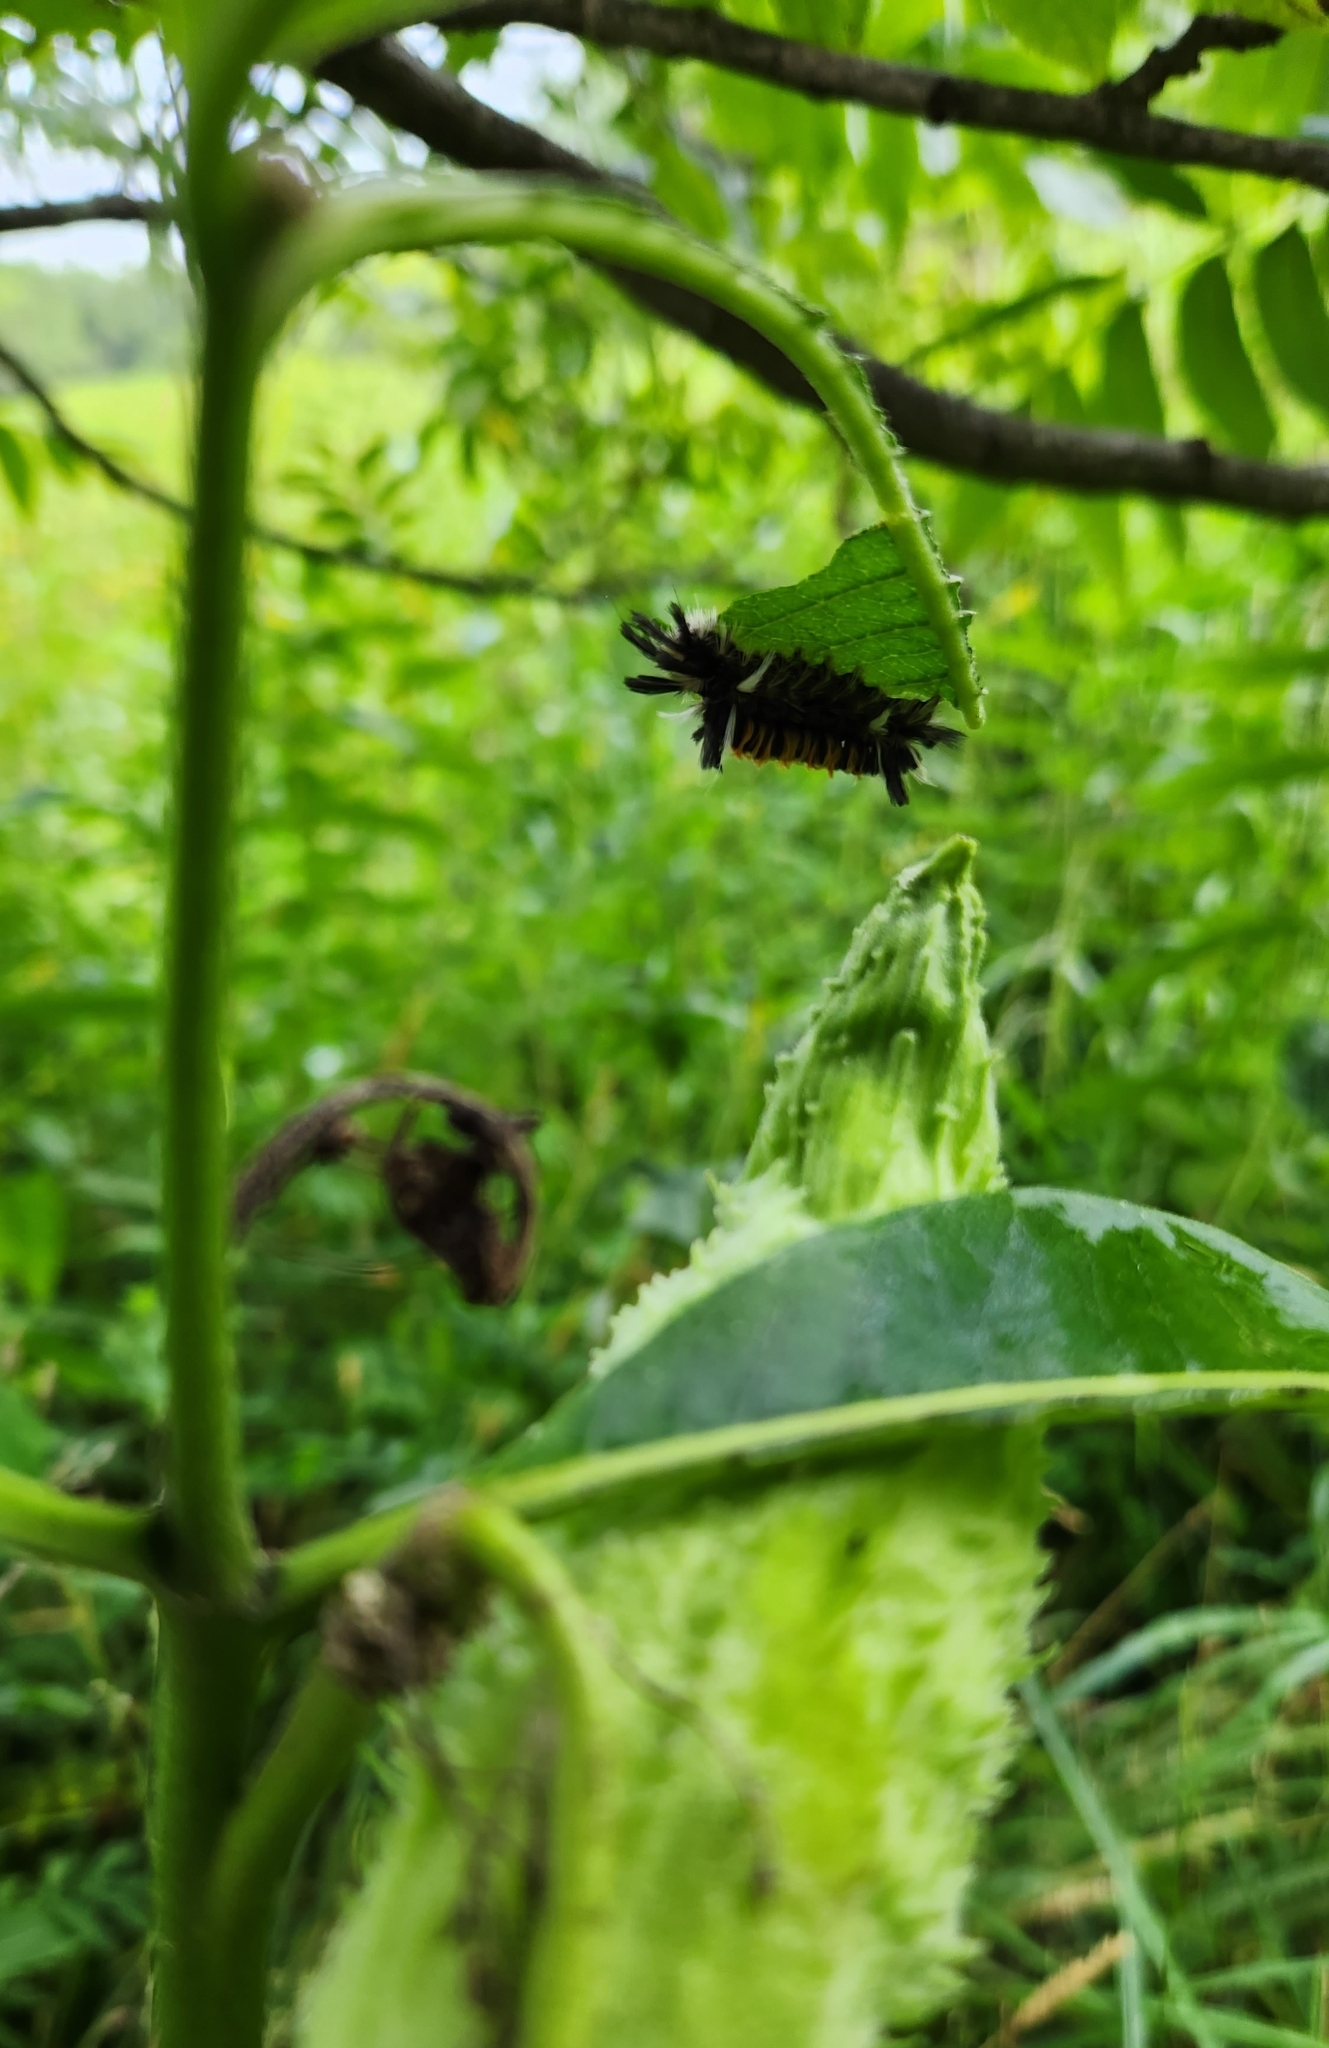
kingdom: Animalia
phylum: Arthropoda
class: Insecta
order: Lepidoptera
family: Erebidae
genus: Euchaetes
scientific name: Euchaetes egle
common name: Milkweed tussock moth
